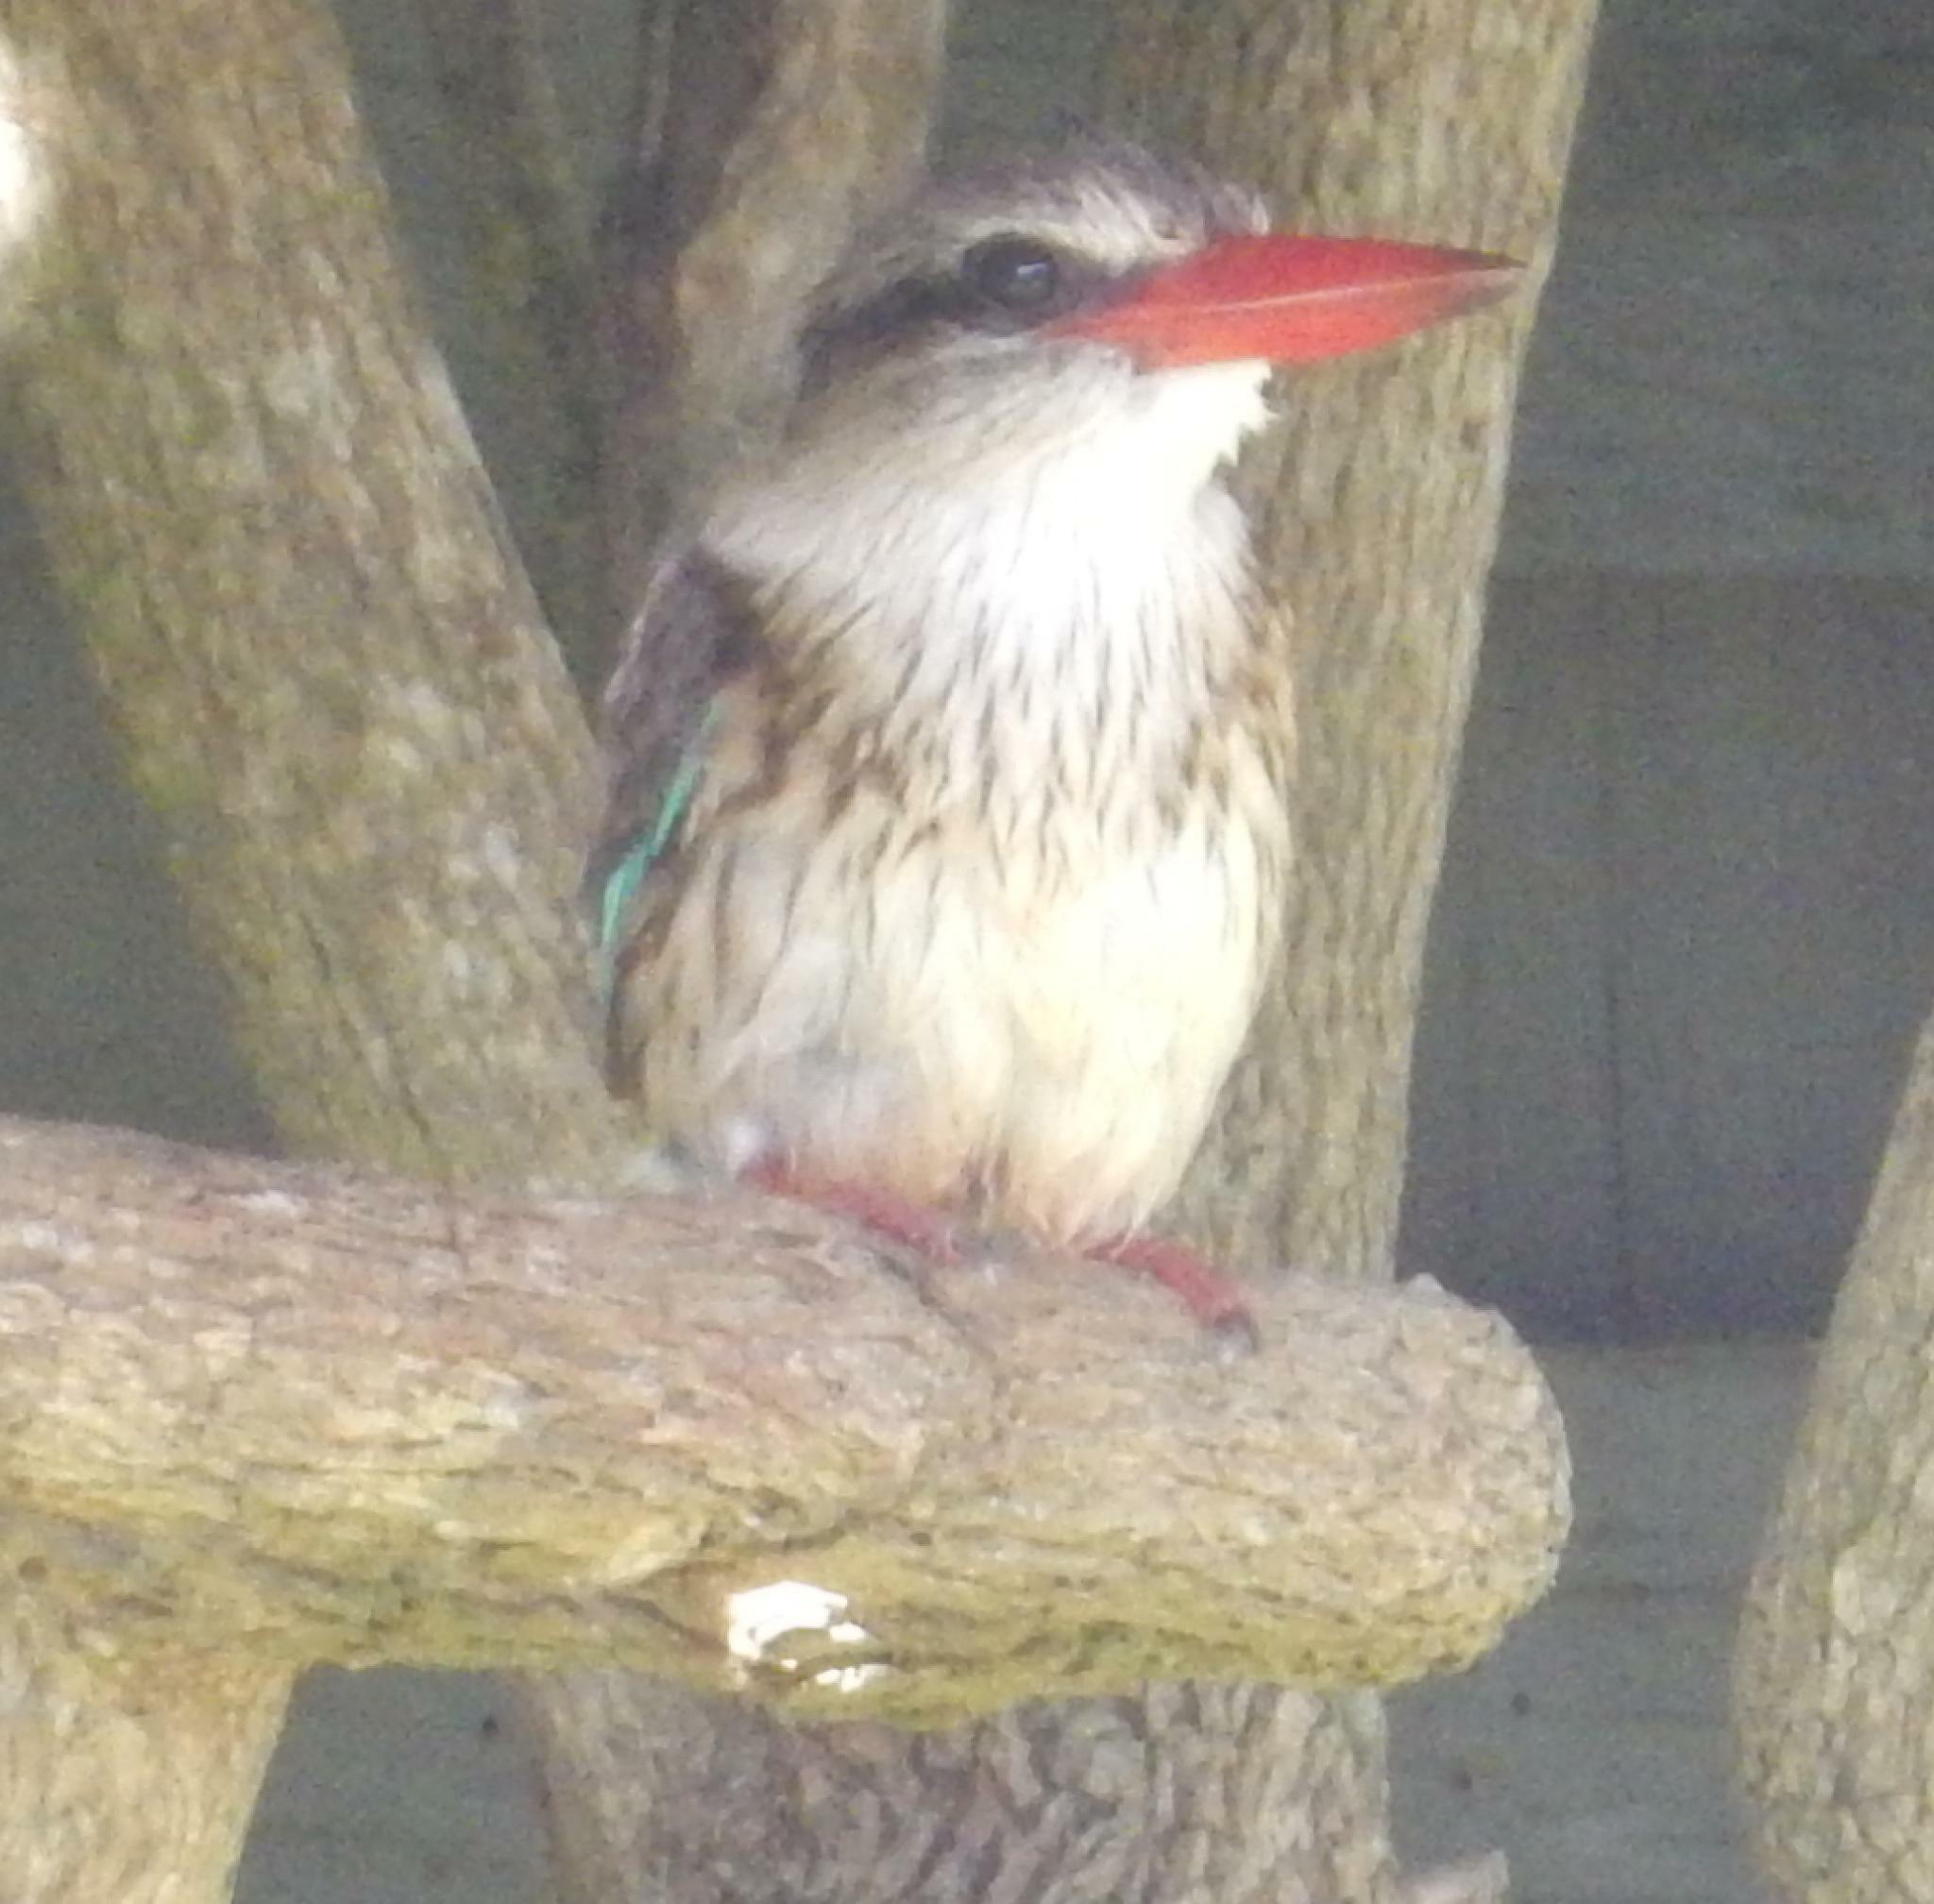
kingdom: Animalia
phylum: Chordata
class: Aves
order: Coraciiformes
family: Alcedinidae
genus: Halcyon
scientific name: Halcyon albiventris
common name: Brown-hooded kingfisher
